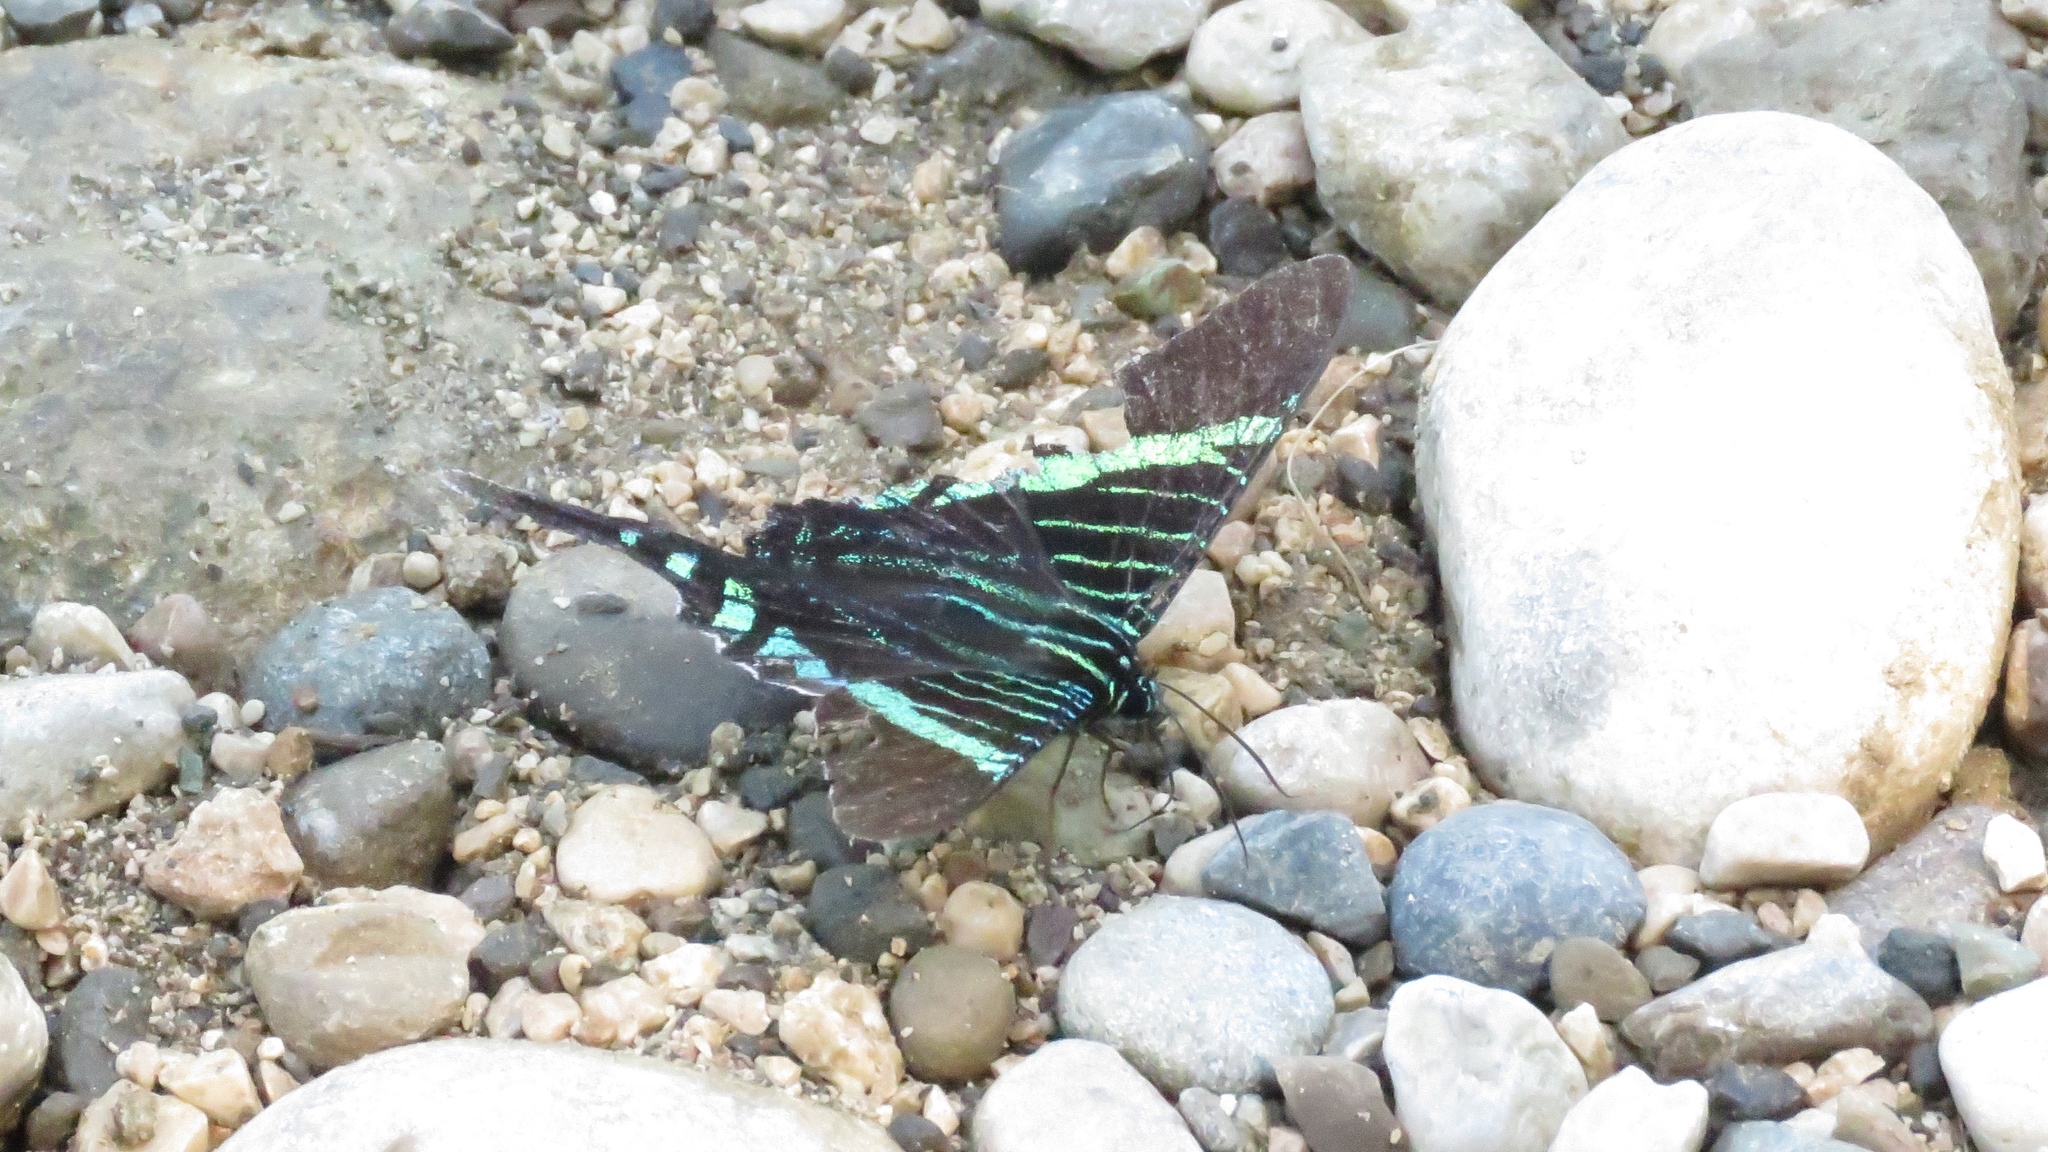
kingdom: Animalia
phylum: Arthropoda
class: Insecta
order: Lepidoptera
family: Uraniidae
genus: Urania
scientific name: Urania fulgens
